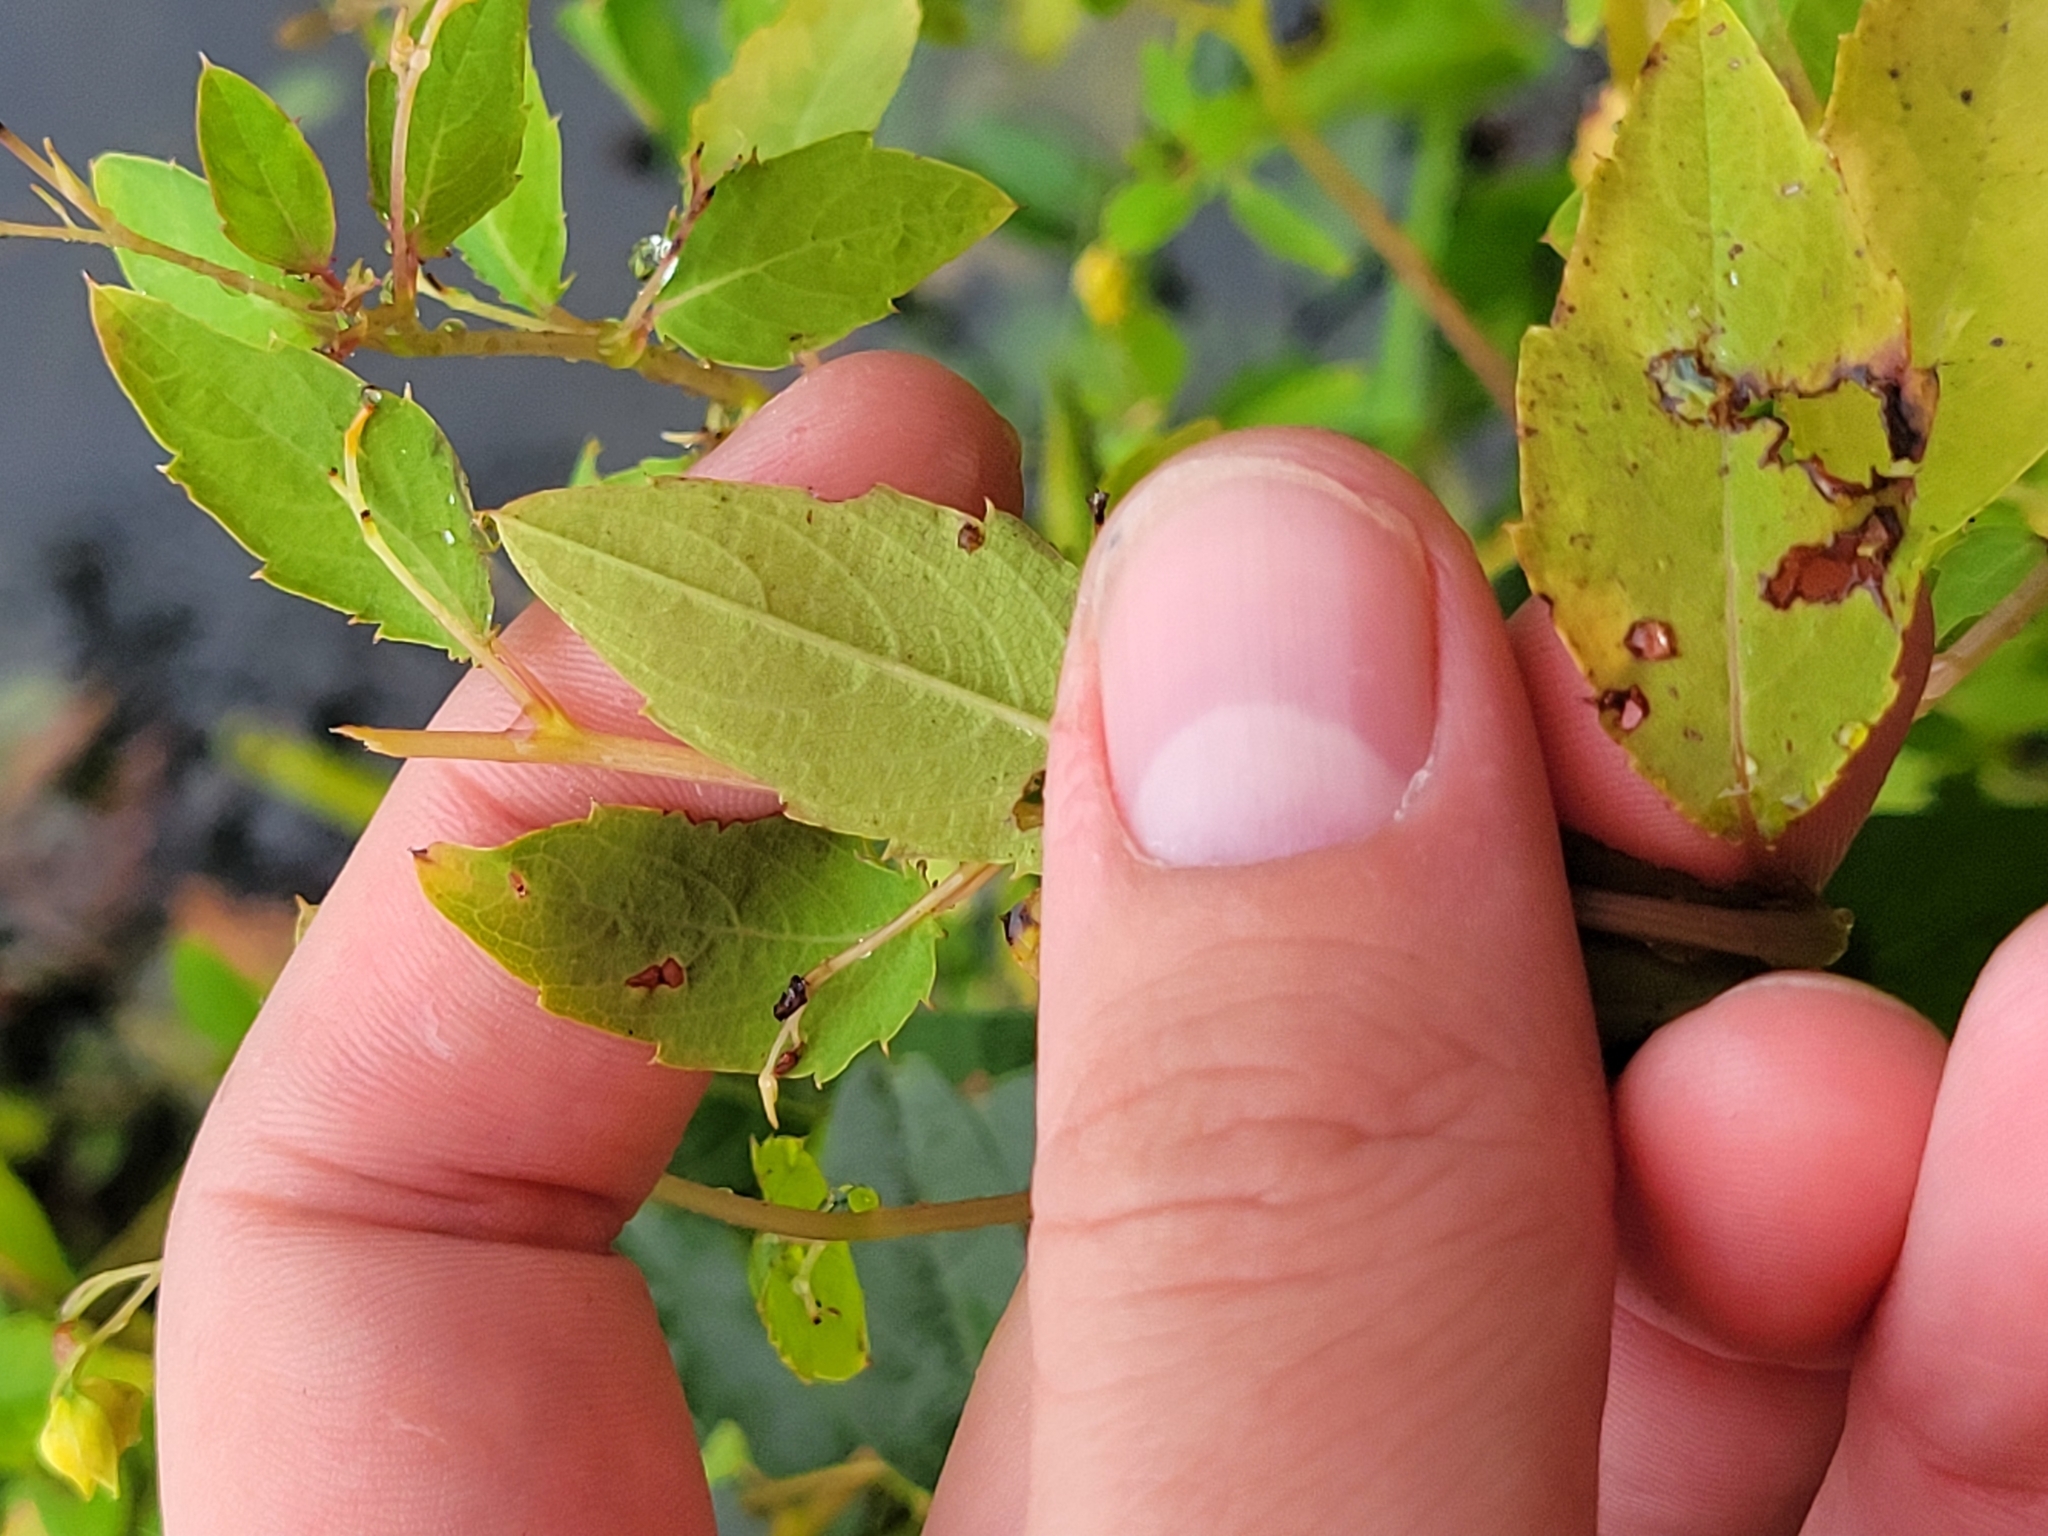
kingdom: Plantae
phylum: Tracheophyta
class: Magnoliopsida
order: Ericales
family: Balsaminaceae
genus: Impatiens
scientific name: Impatiens capensis
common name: Orange balsam
